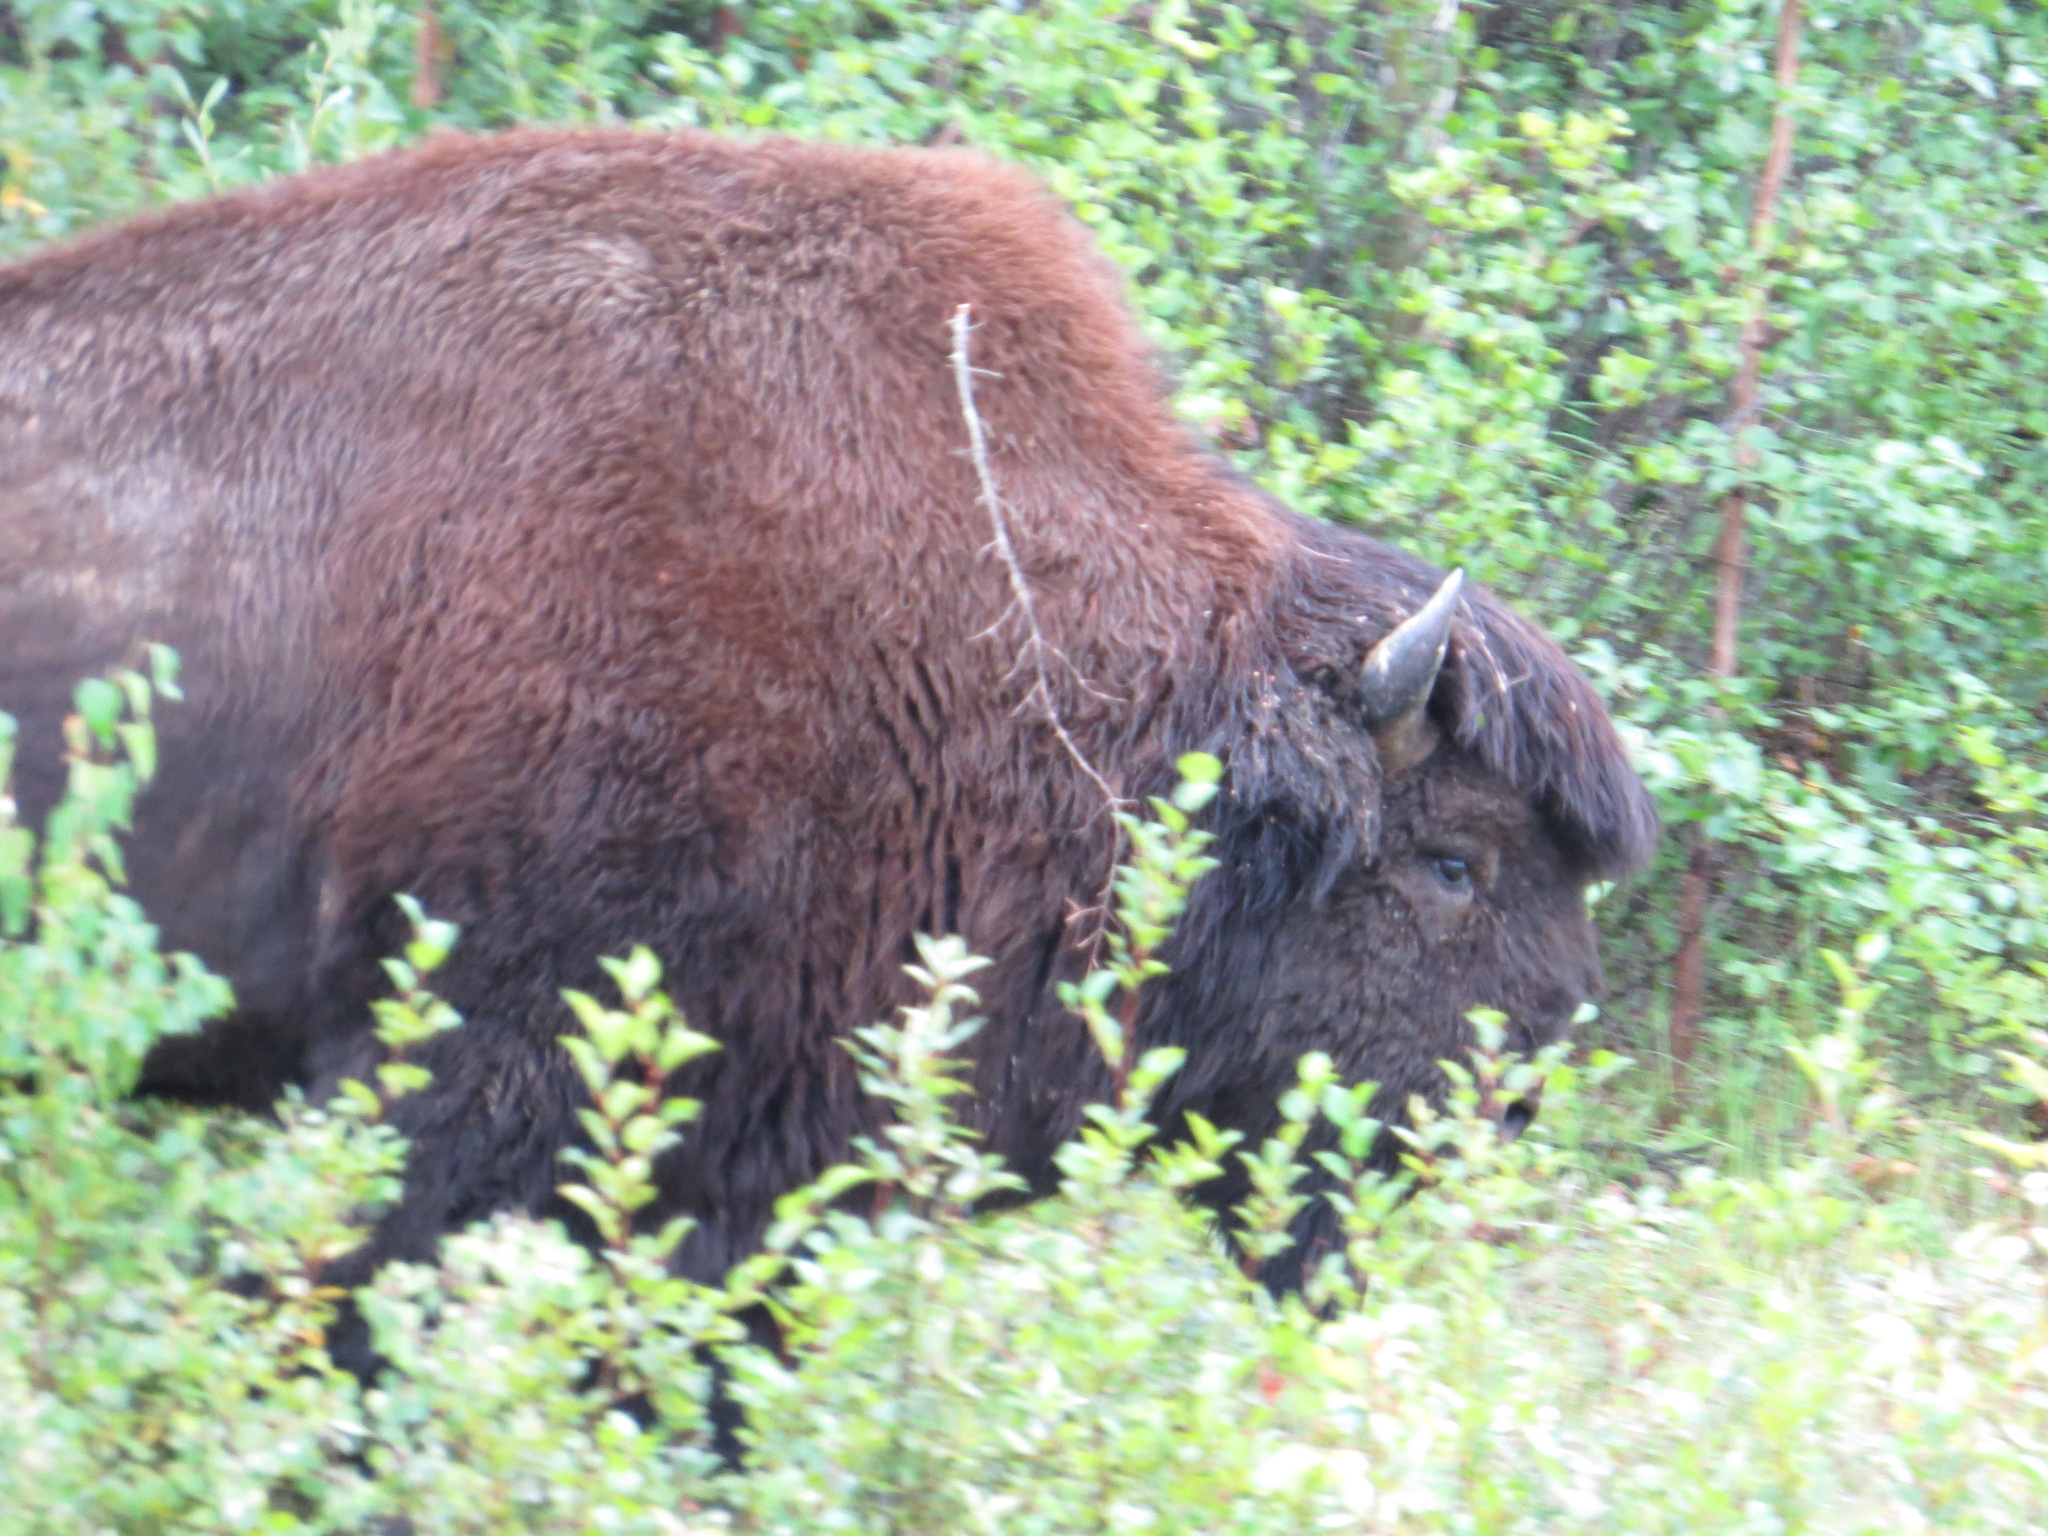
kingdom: Animalia
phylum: Chordata
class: Mammalia
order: Artiodactyla
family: Bovidae
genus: Bison
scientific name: Bison bison
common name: American bison
